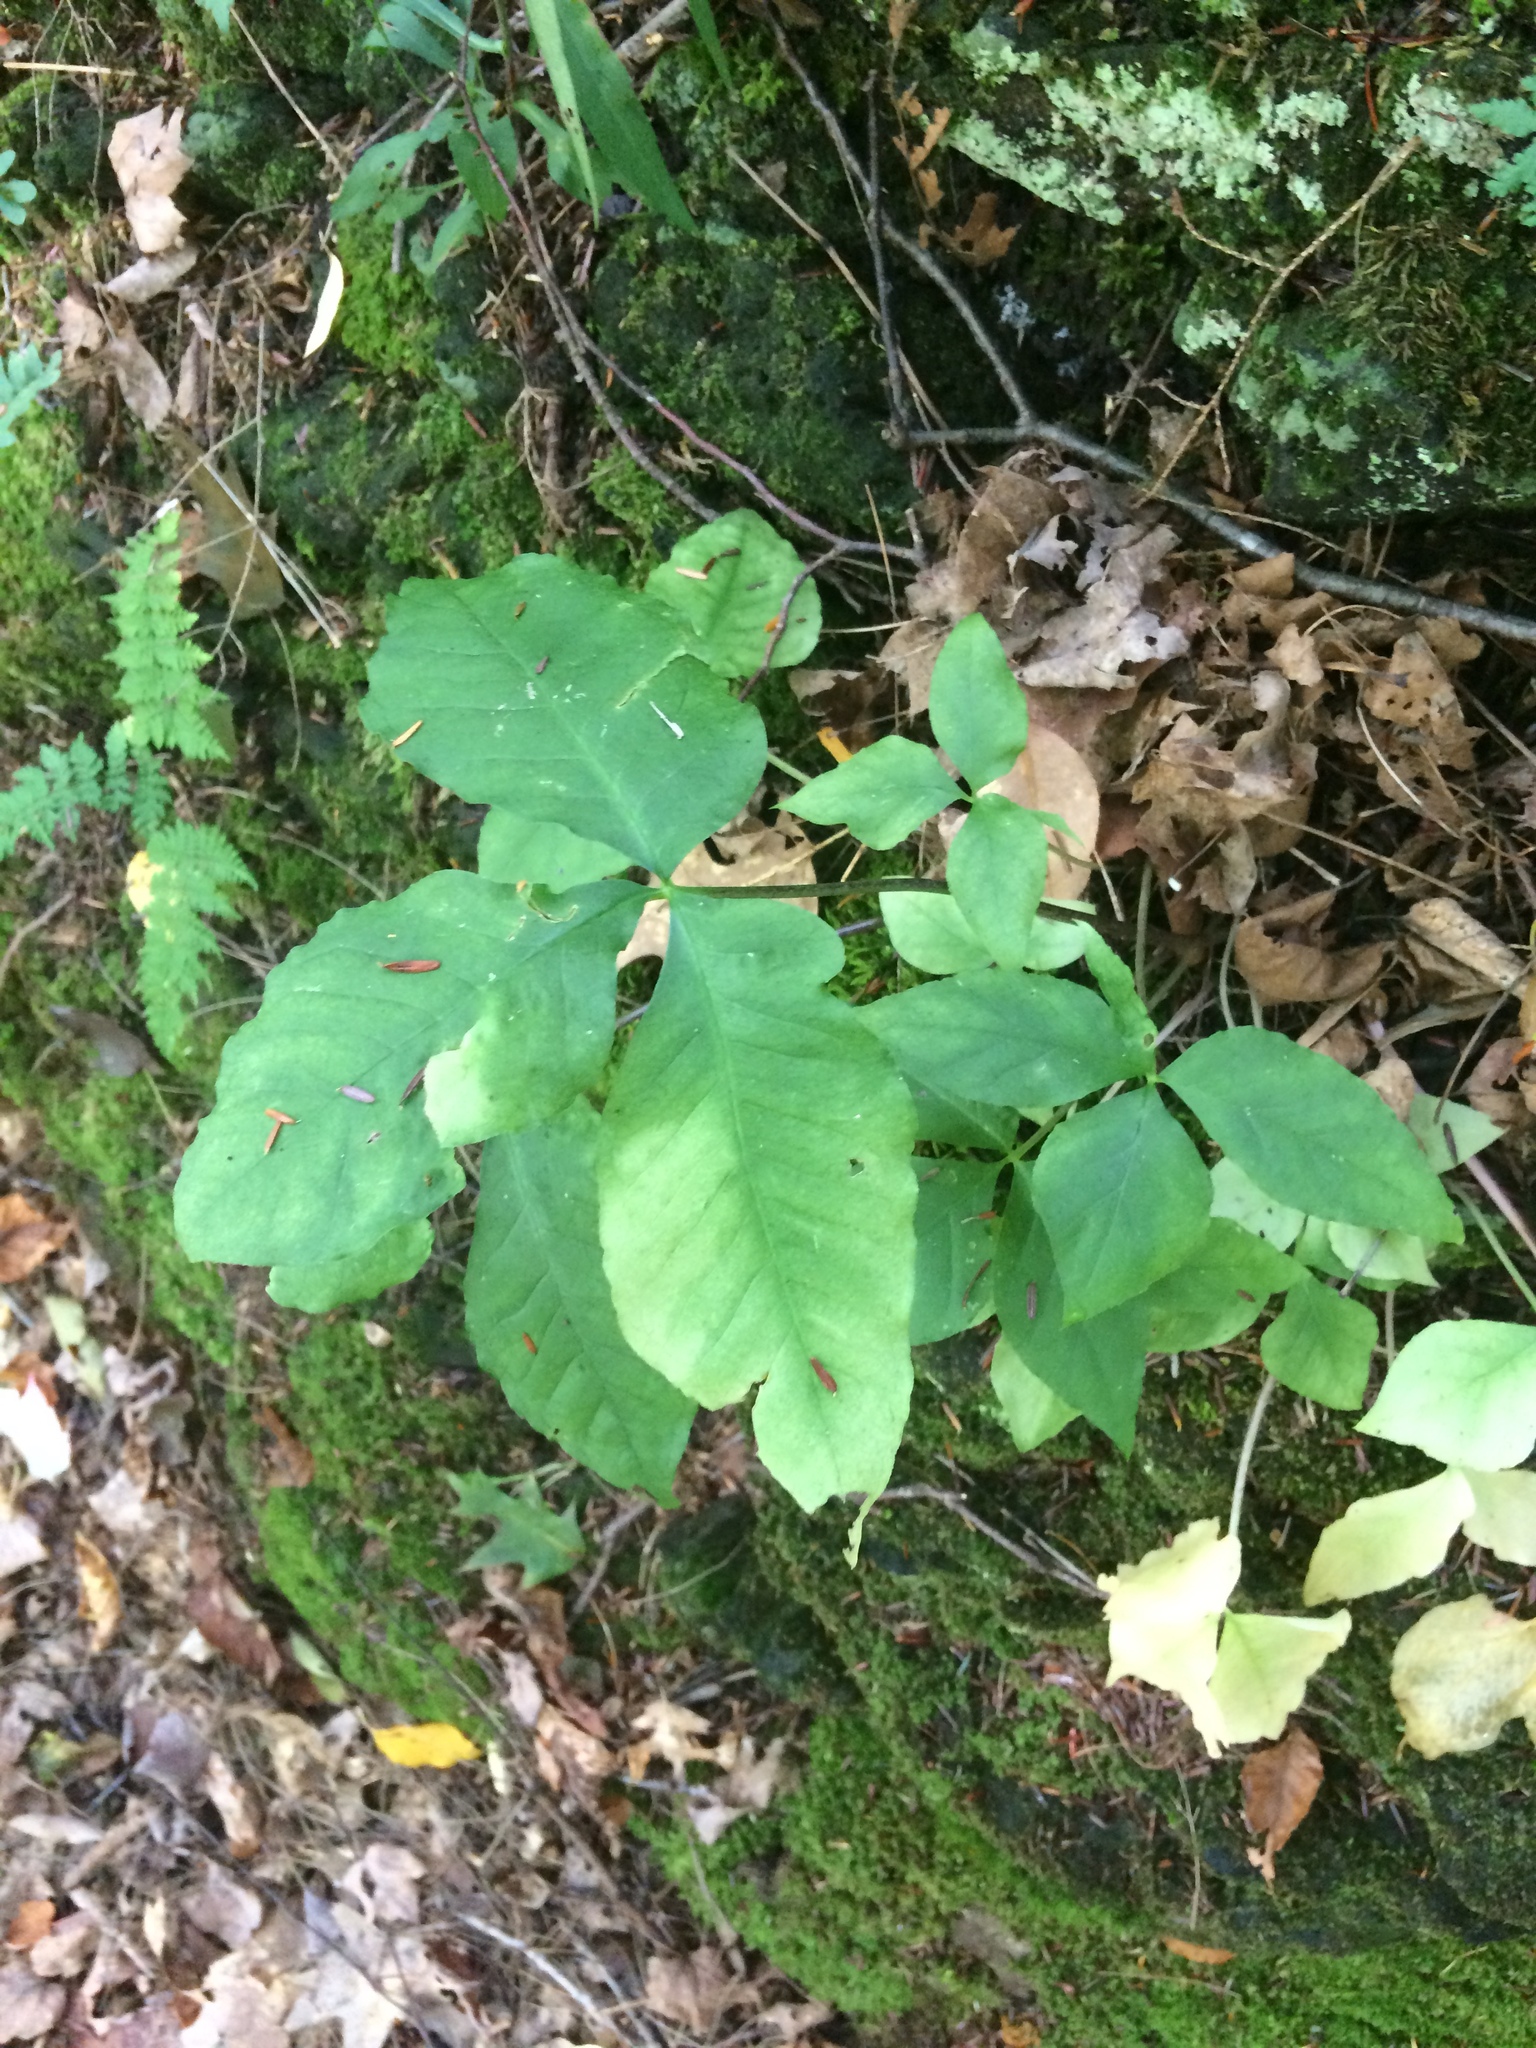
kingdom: Plantae
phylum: Tracheophyta
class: Liliopsida
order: Alismatales
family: Araceae
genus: Arisaema
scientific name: Arisaema triphyllum
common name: Jack-in-the-pulpit
